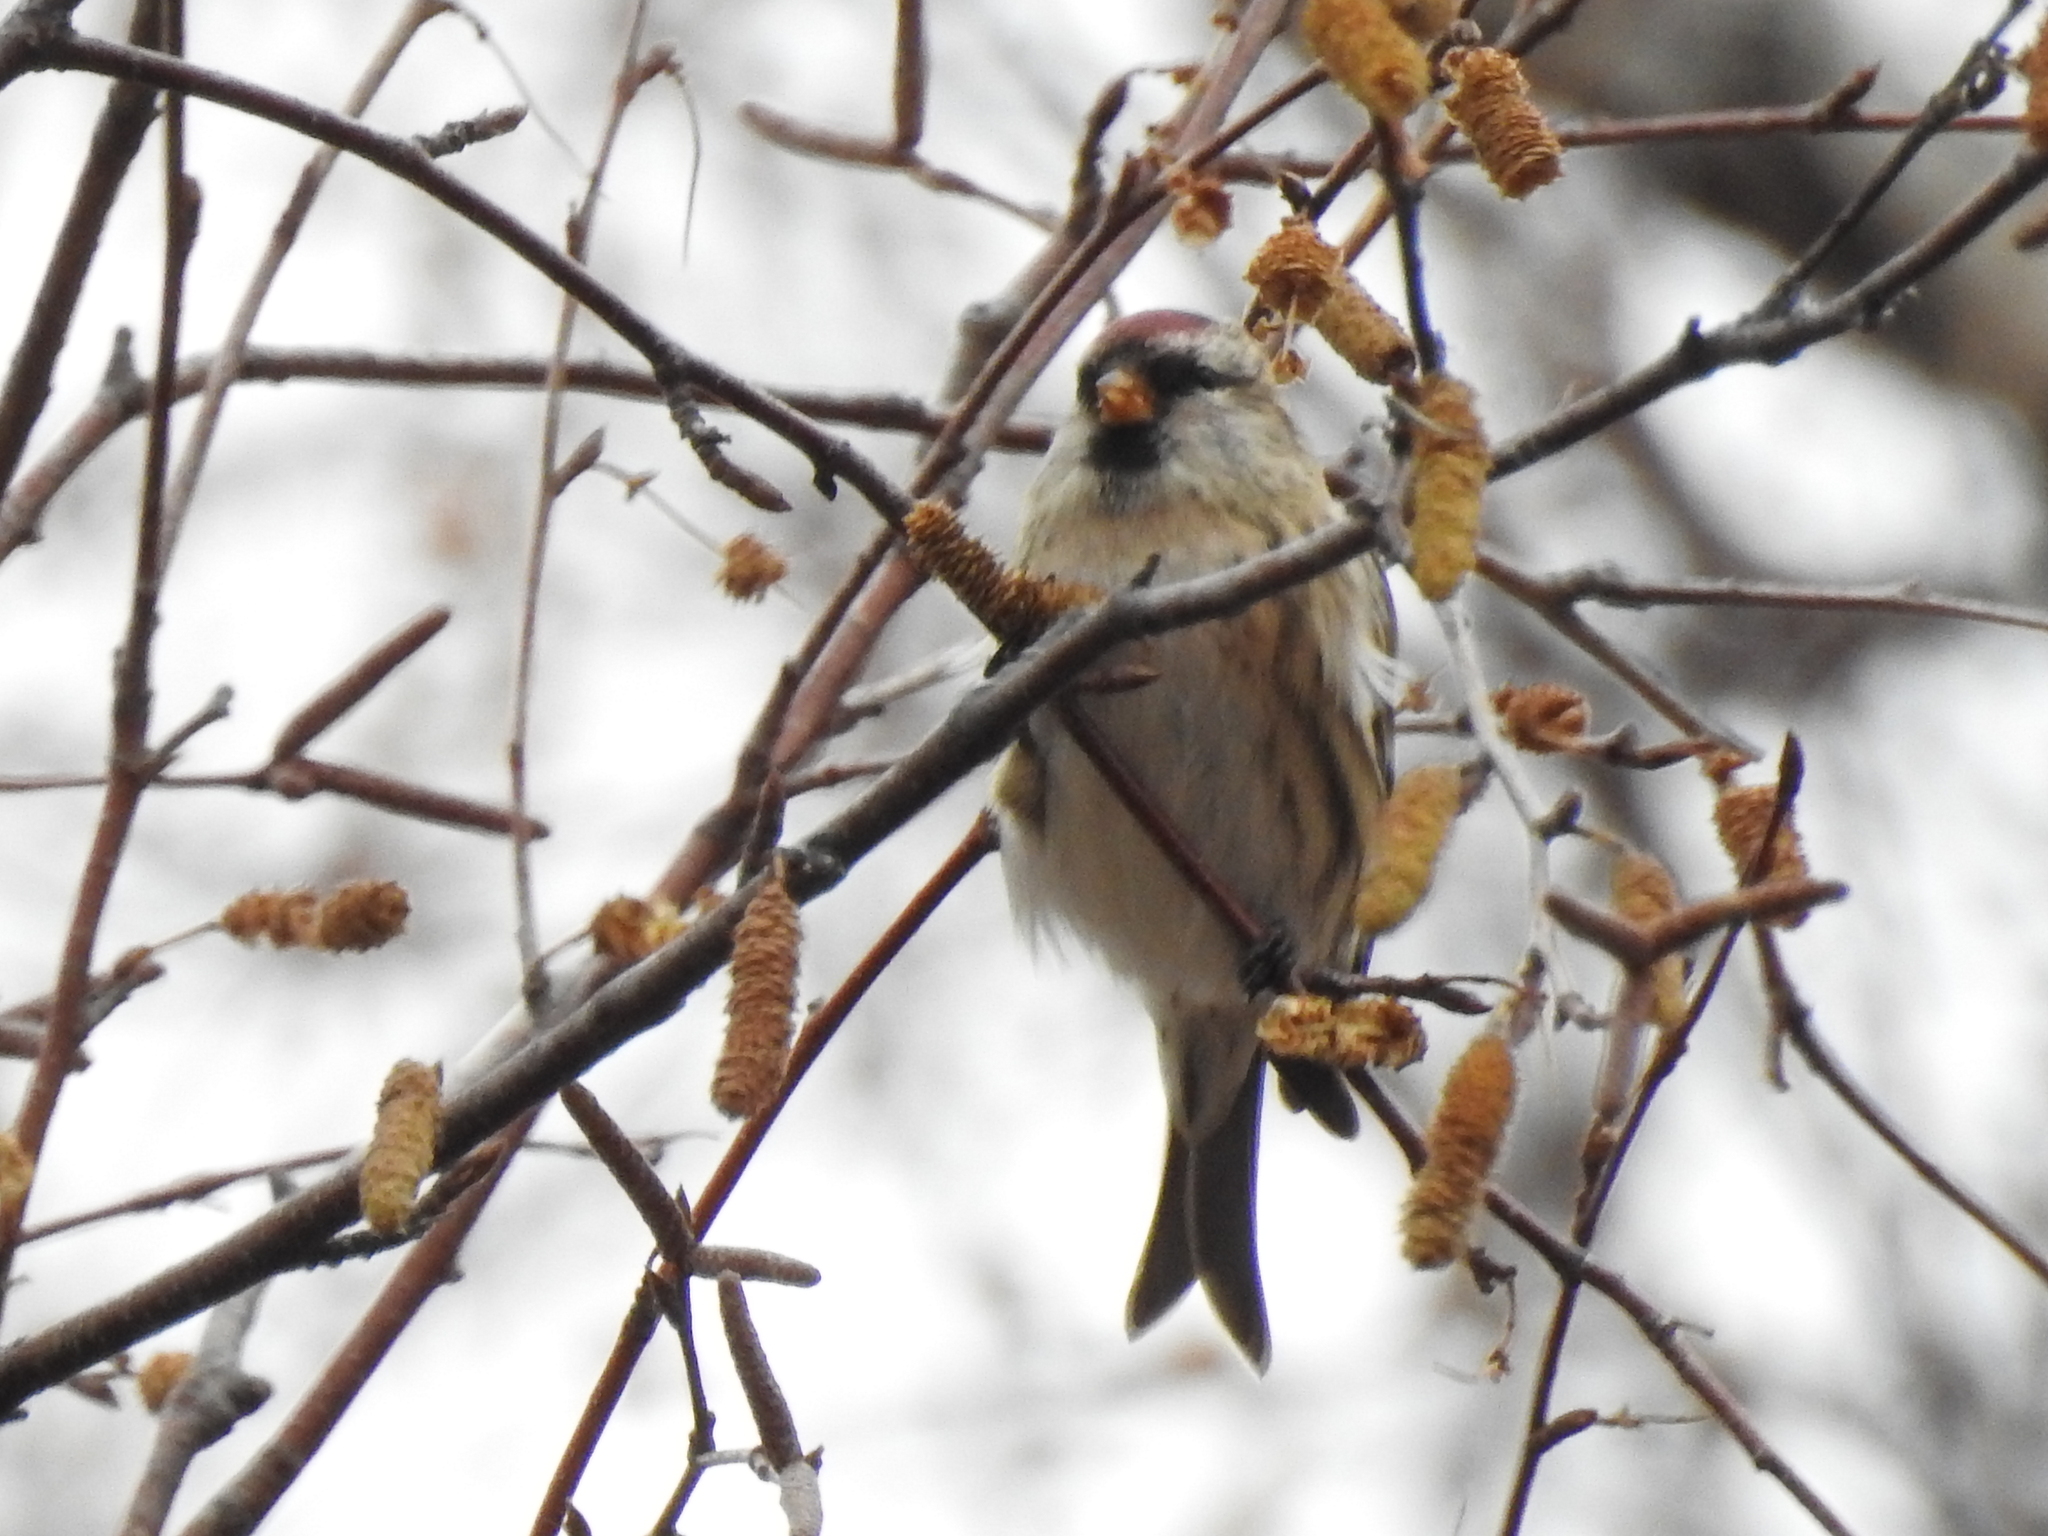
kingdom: Animalia
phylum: Chordata
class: Aves
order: Passeriformes
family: Fringillidae
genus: Acanthis
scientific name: Acanthis flammea
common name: Common redpoll
